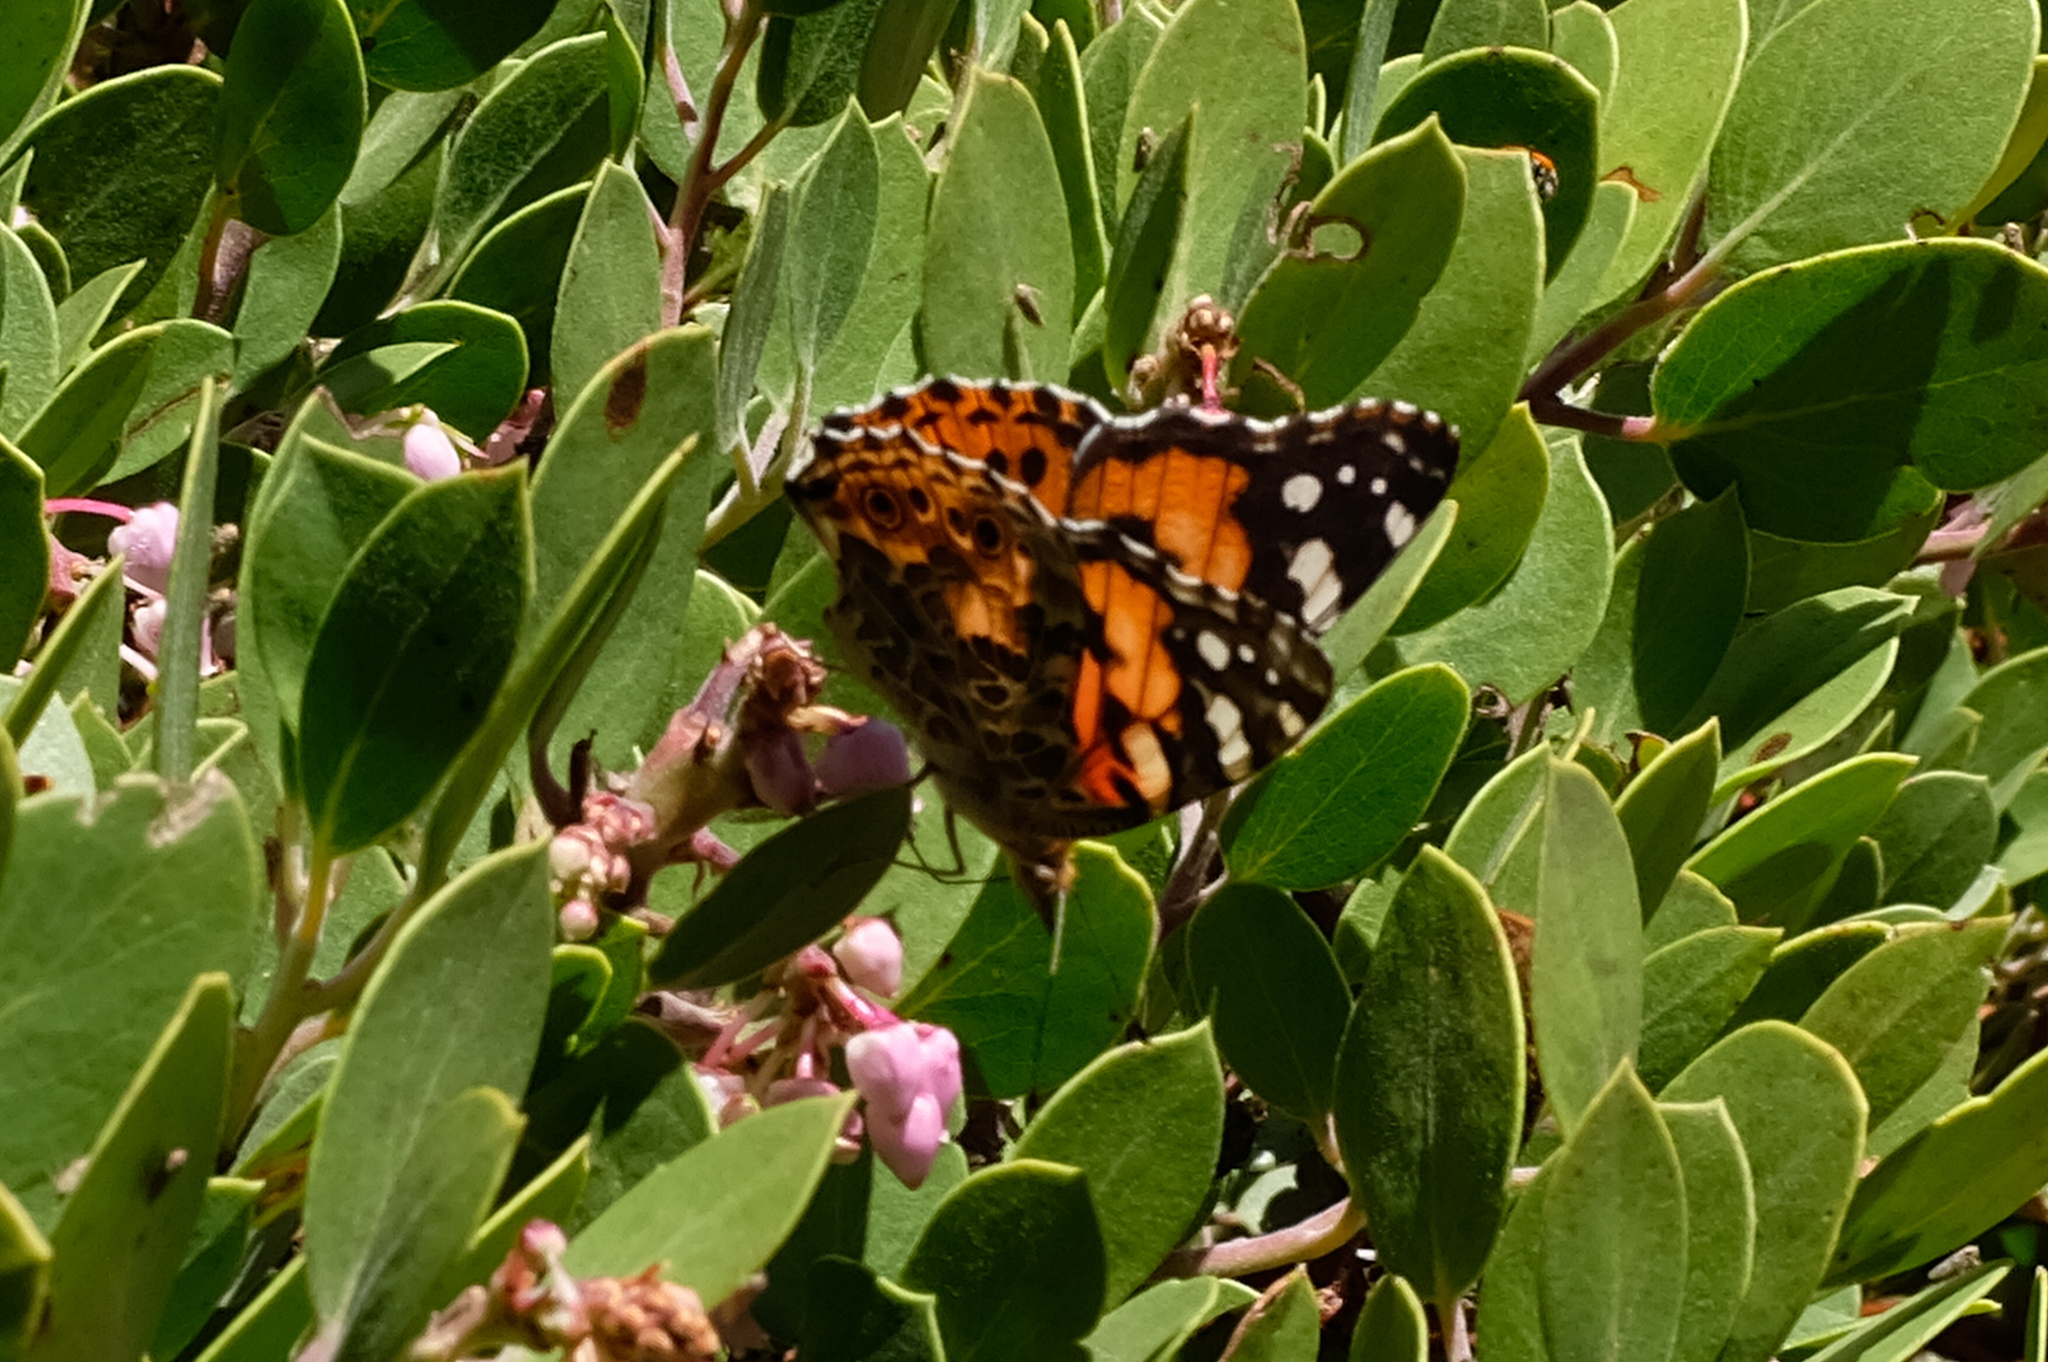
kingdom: Animalia
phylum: Arthropoda
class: Insecta
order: Lepidoptera
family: Nymphalidae
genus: Vanessa
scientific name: Vanessa cardui
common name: Painted lady
